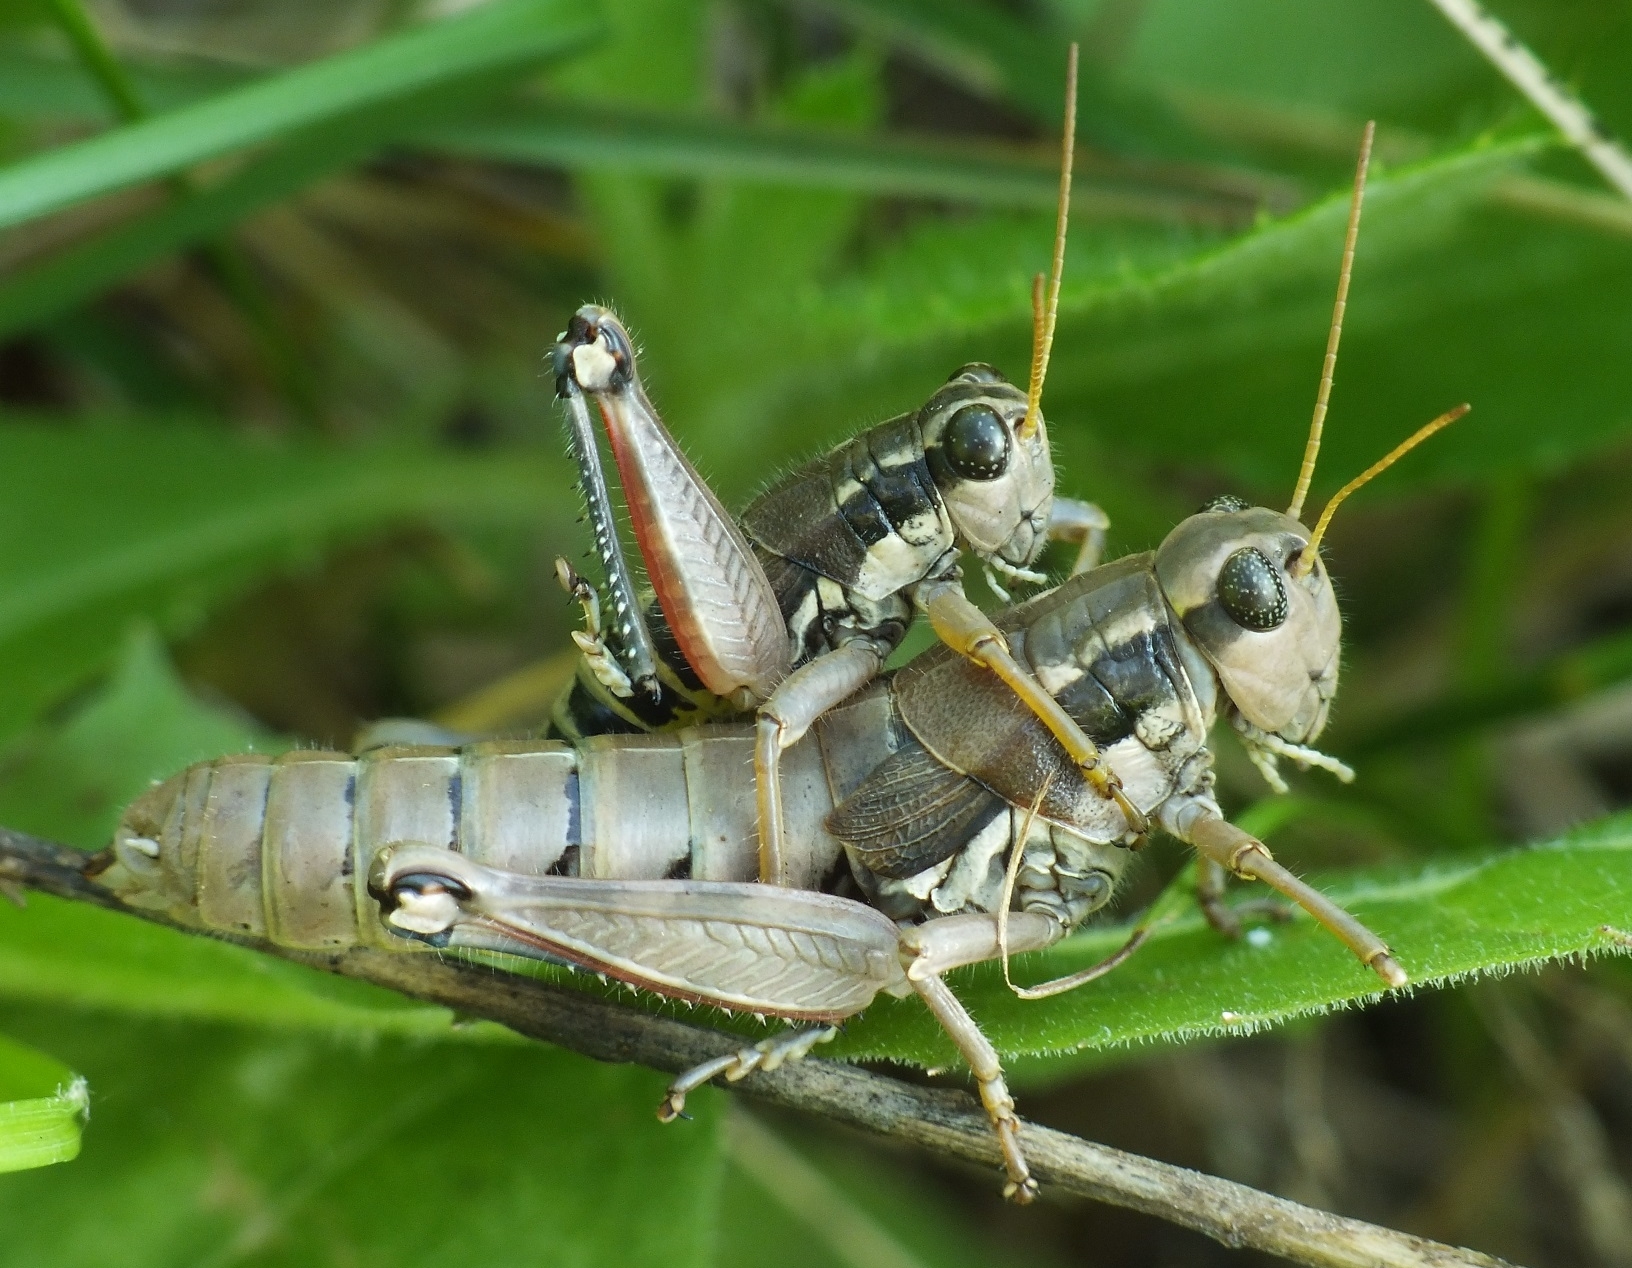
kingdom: Animalia
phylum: Arthropoda
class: Insecta
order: Orthoptera
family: Acrididae
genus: Podisma
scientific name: Podisma pedestris
